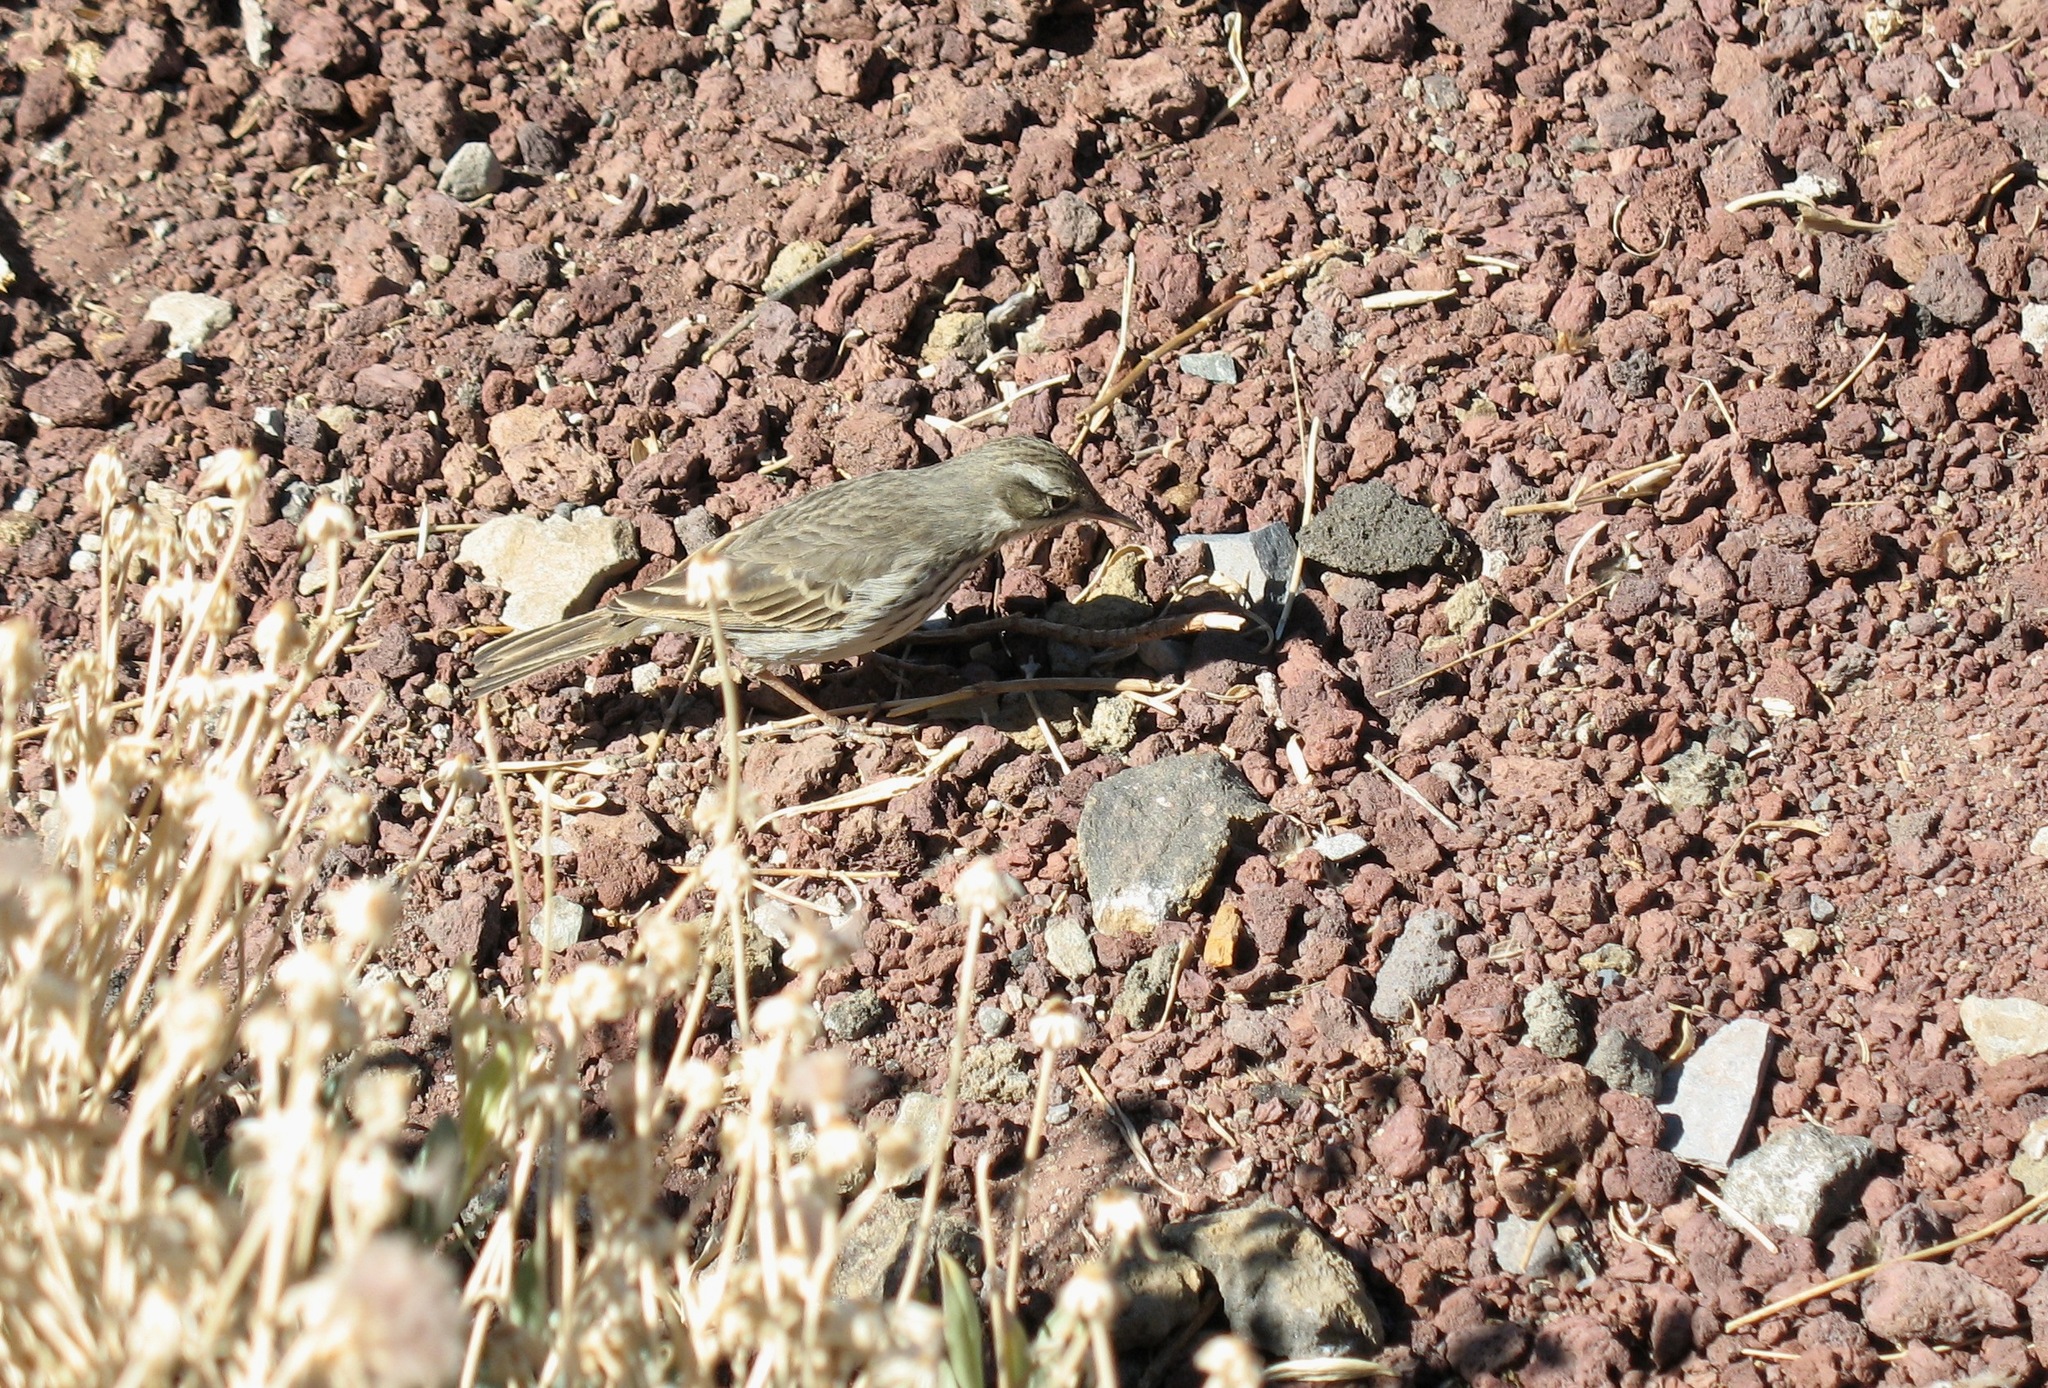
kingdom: Animalia
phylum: Chordata
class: Aves
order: Passeriformes
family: Motacillidae
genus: Anthus
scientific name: Anthus berthelotii
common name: Berthelot's pipit
